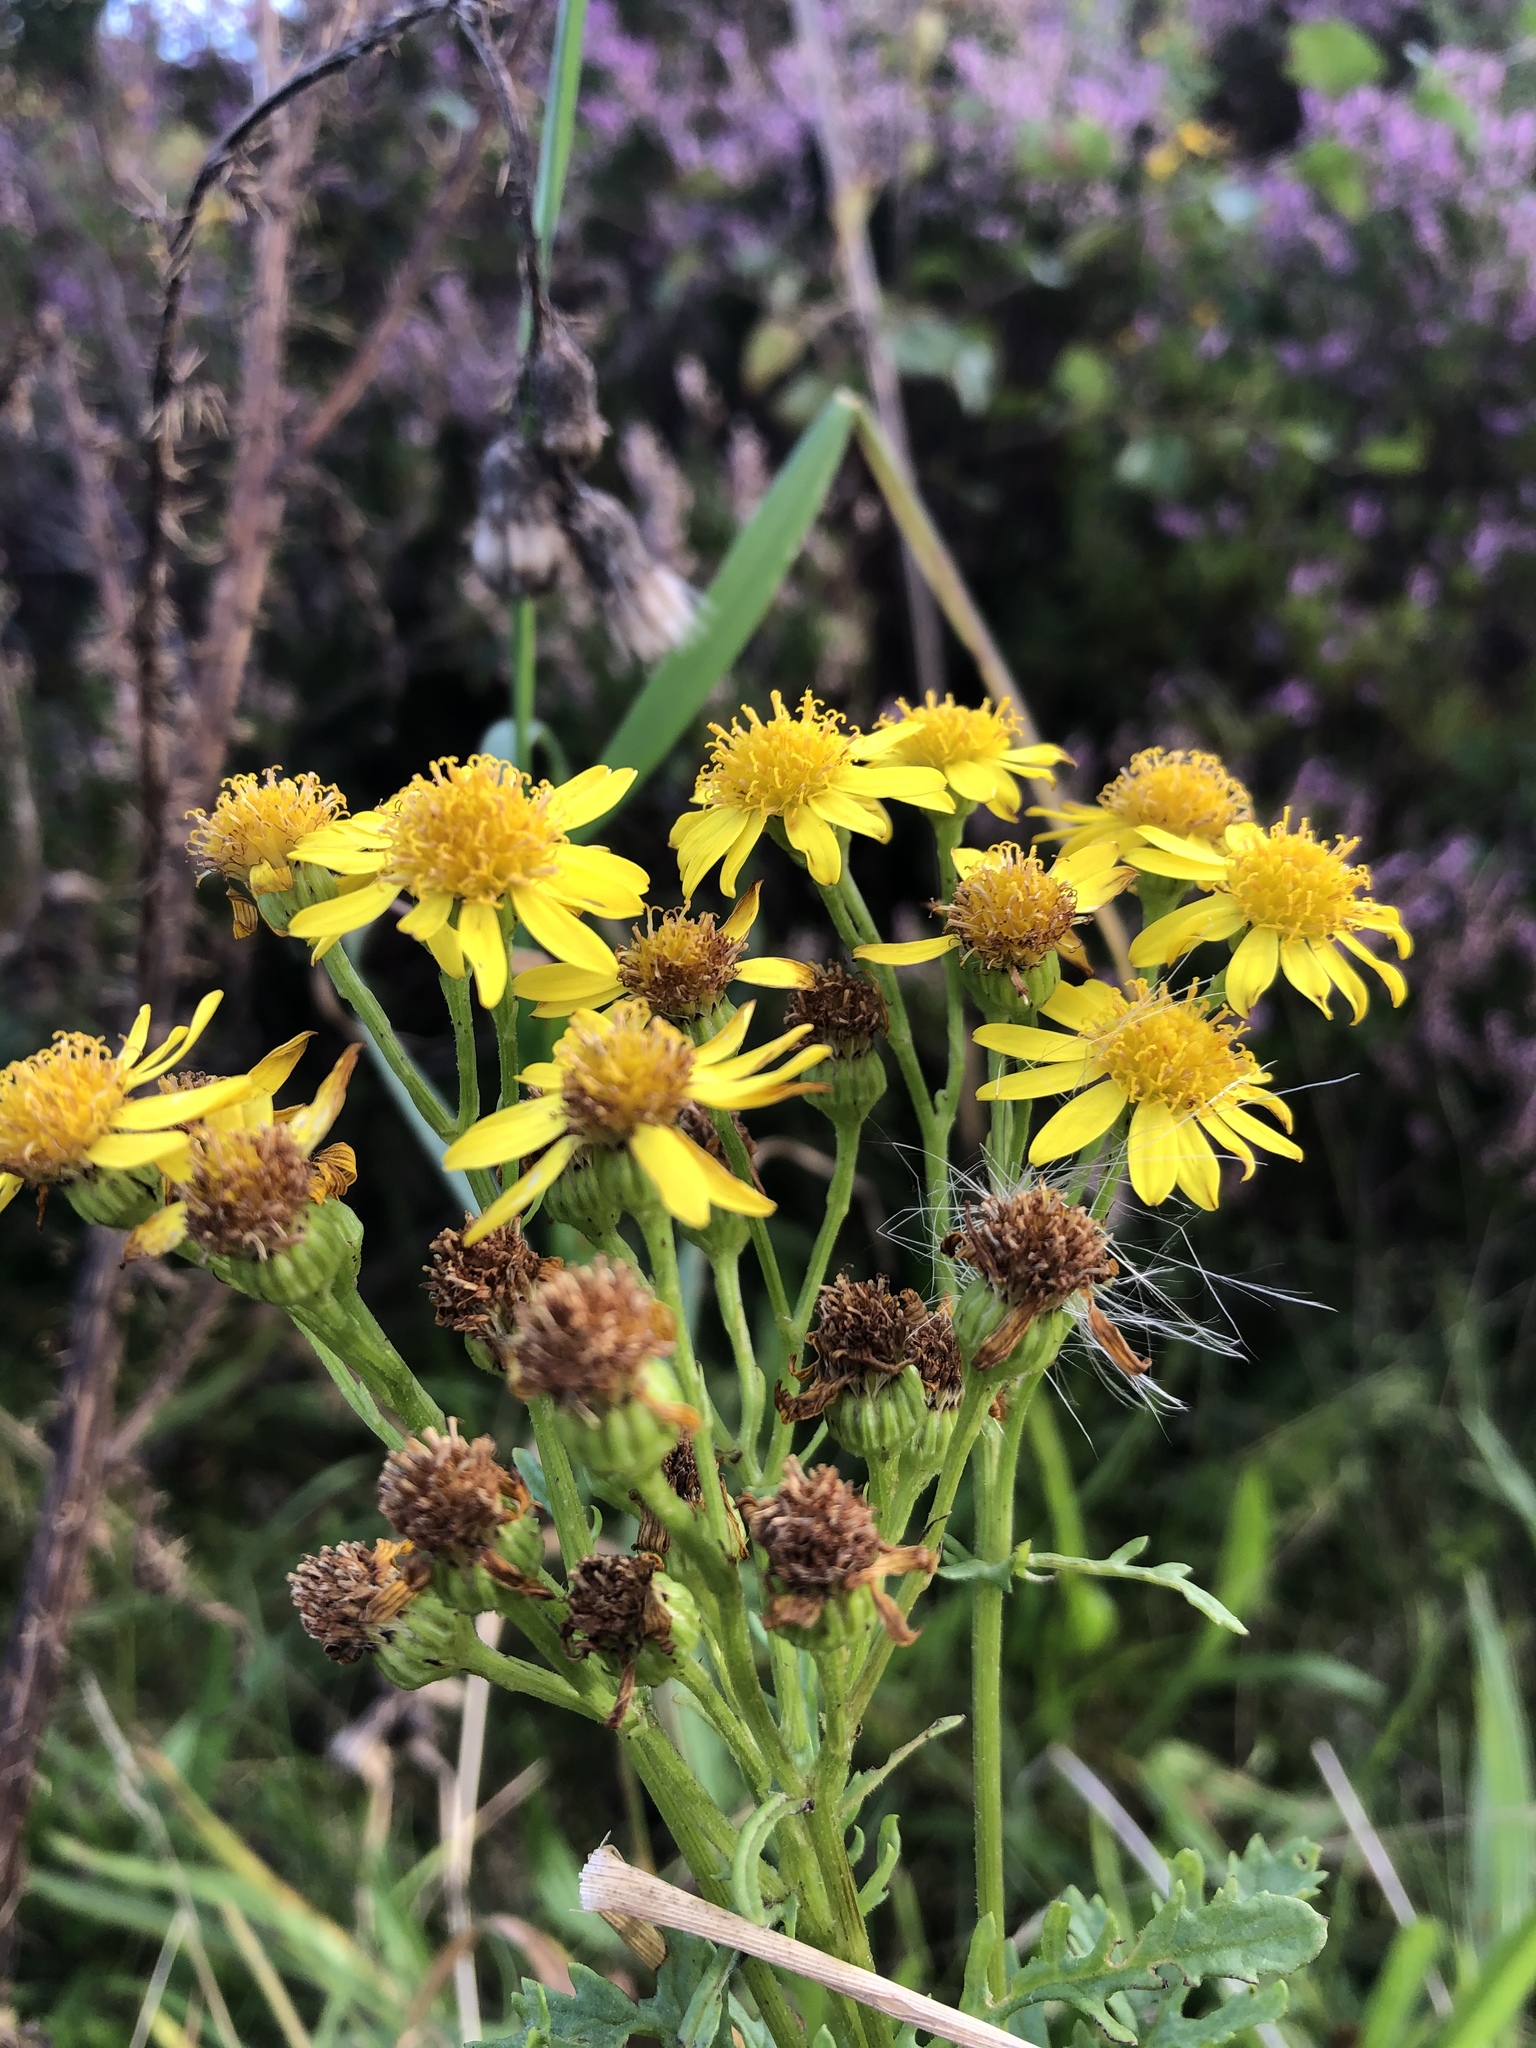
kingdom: Plantae
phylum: Tracheophyta
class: Magnoliopsida
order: Asterales
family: Asteraceae
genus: Jacobaea
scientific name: Jacobaea vulgaris
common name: Stinking willie
